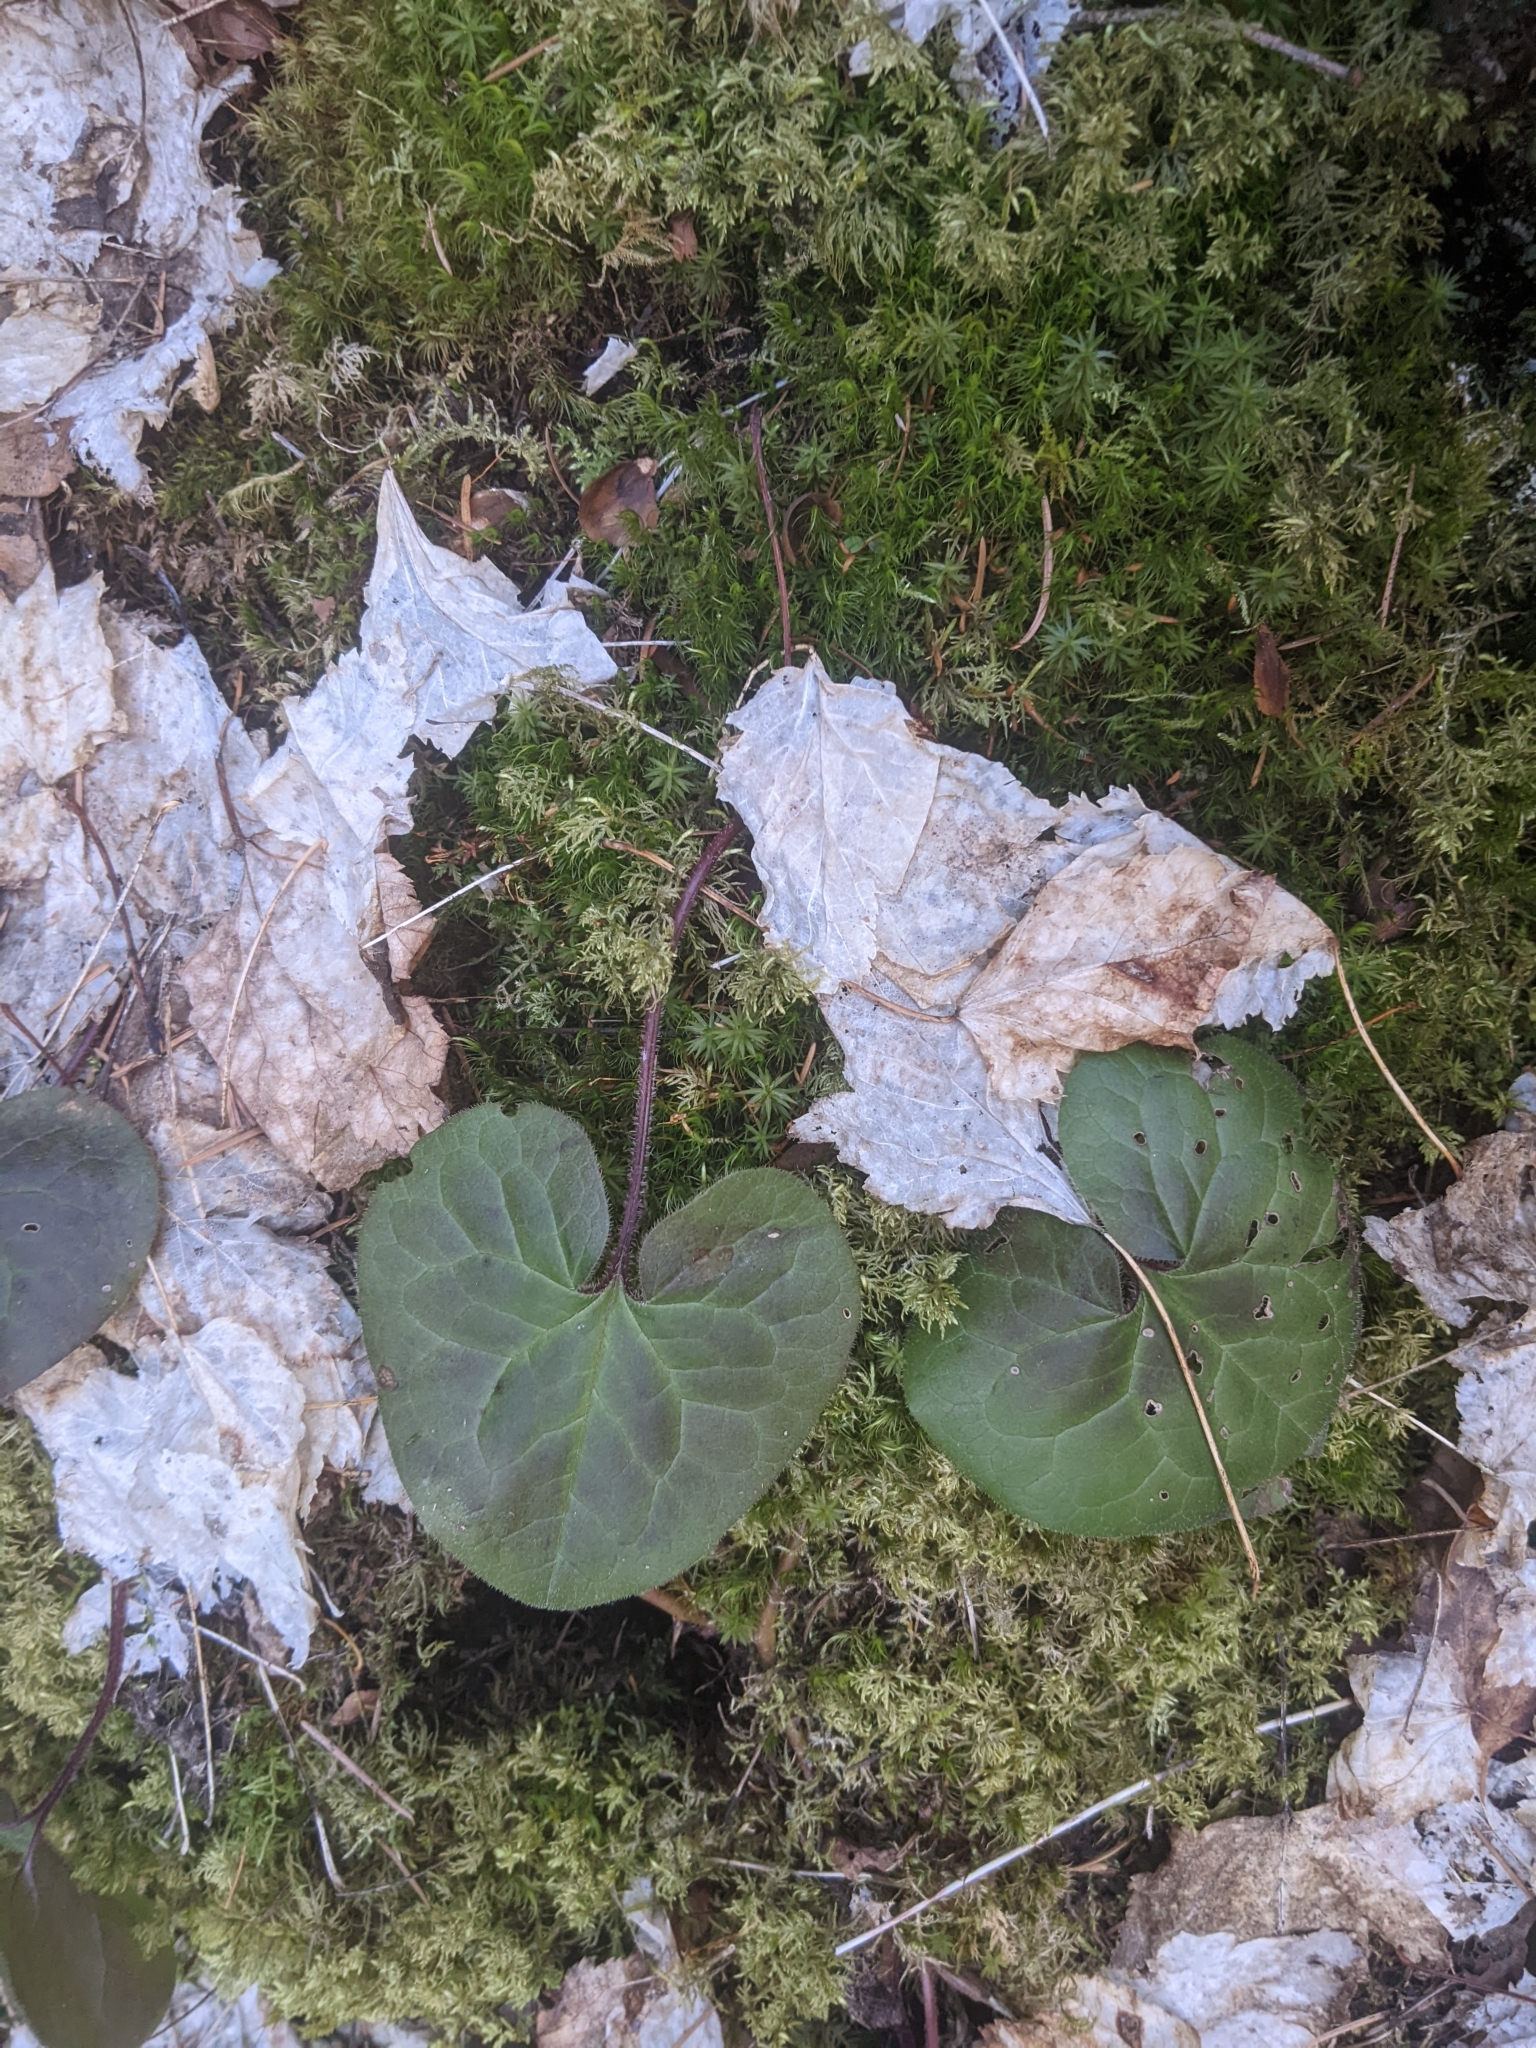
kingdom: Plantae
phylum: Tracheophyta
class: Magnoliopsida
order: Piperales
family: Aristolochiaceae
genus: Asarum
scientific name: Asarum caudatum
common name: Wild ginger
